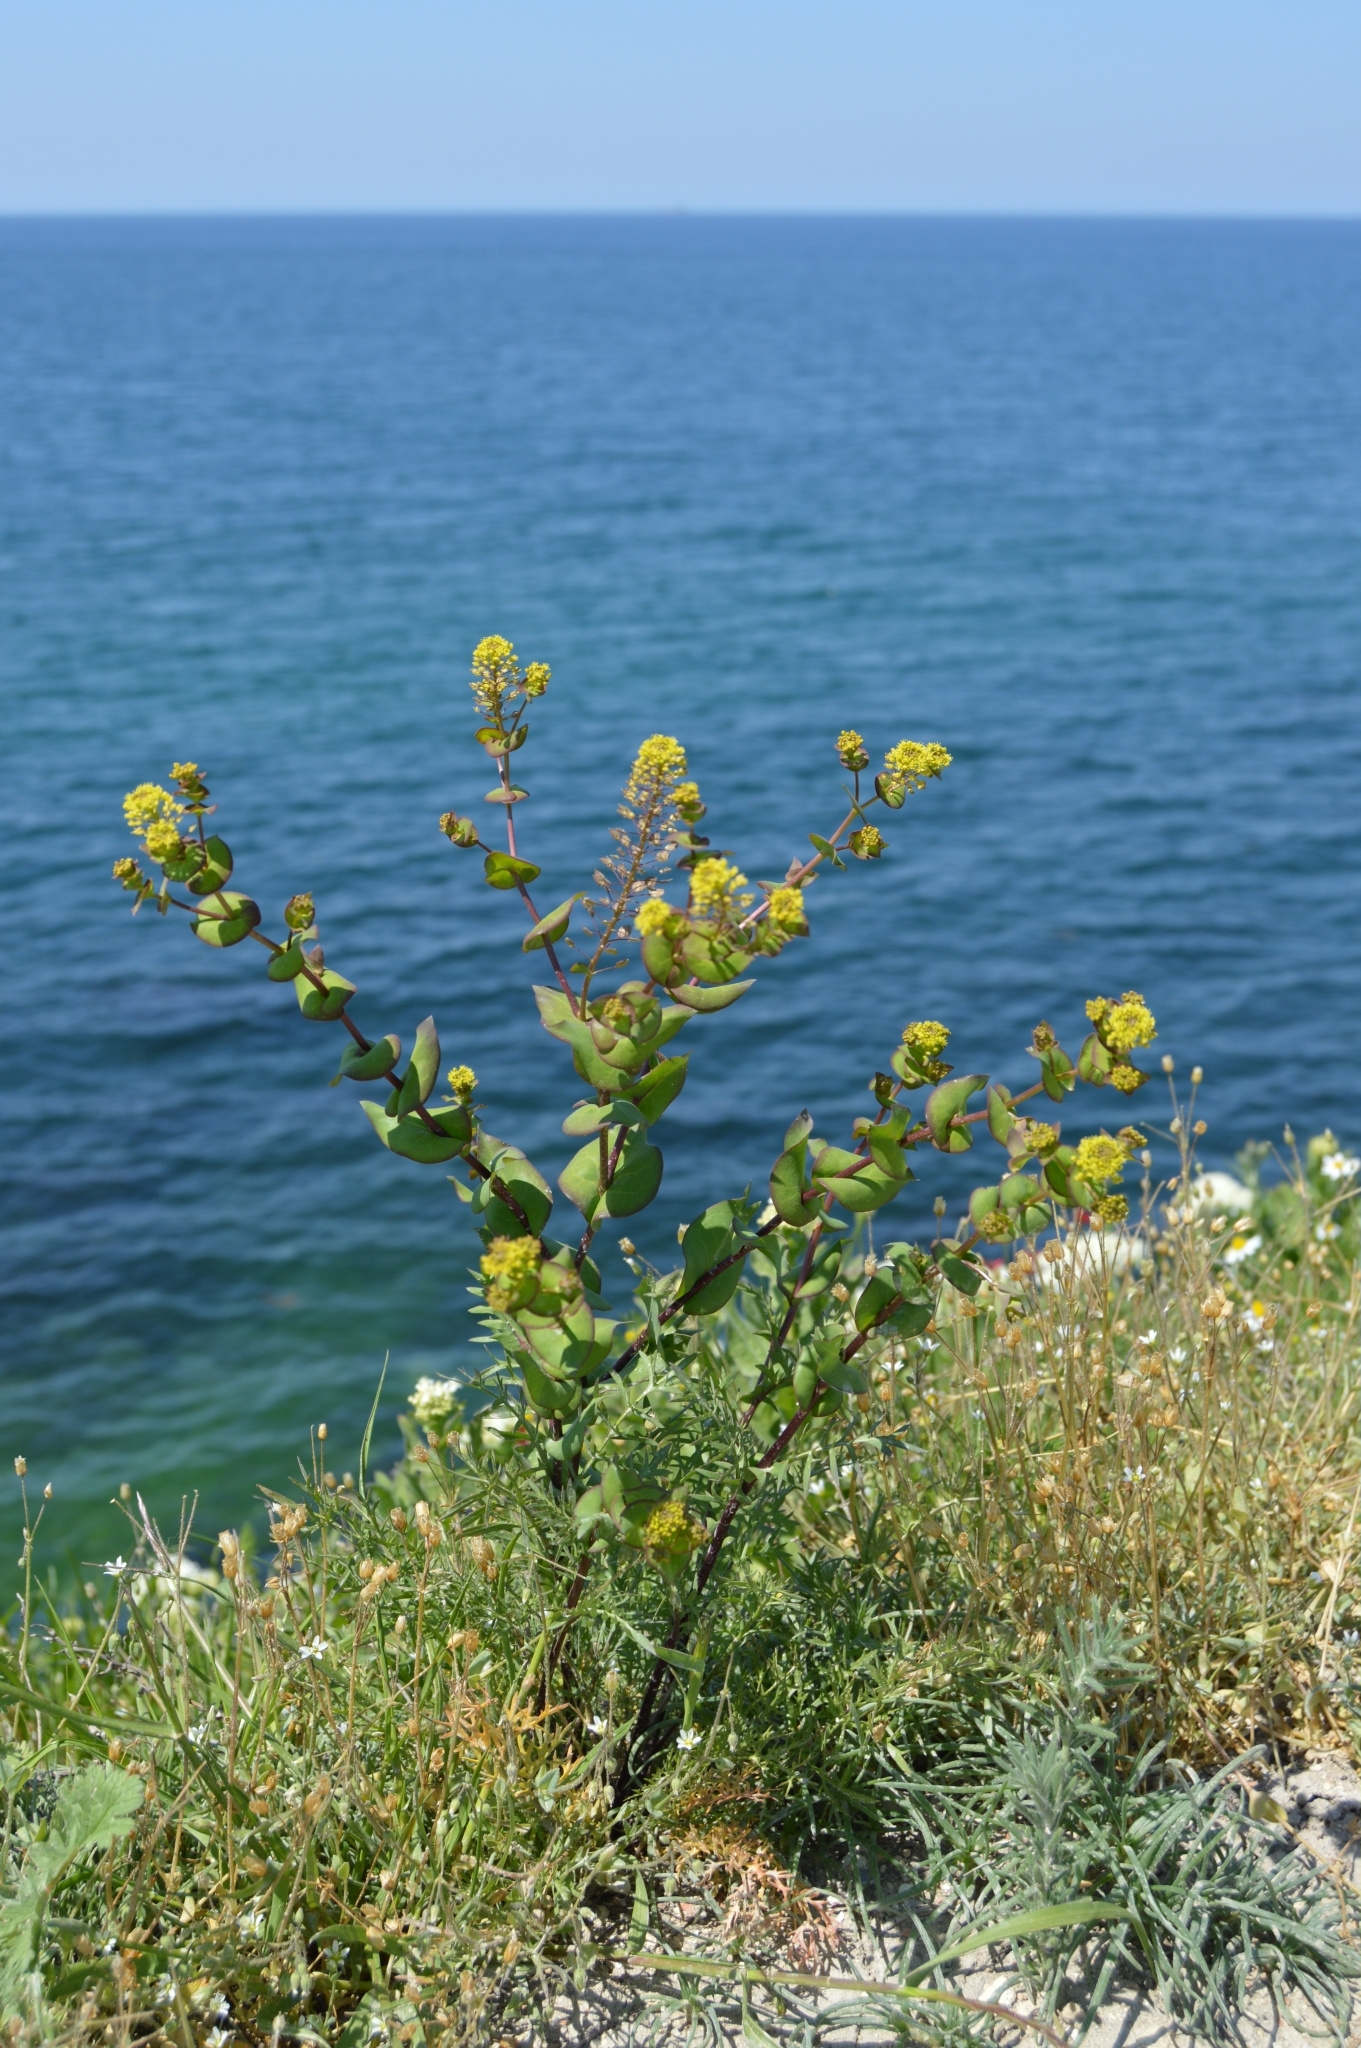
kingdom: Plantae
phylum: Tracheophyta
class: Magnoliopsida
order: Brassicales
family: Brassicaceae
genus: Lepidium
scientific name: Lepidium perfoliatum
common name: Perfoliate pepperwort
